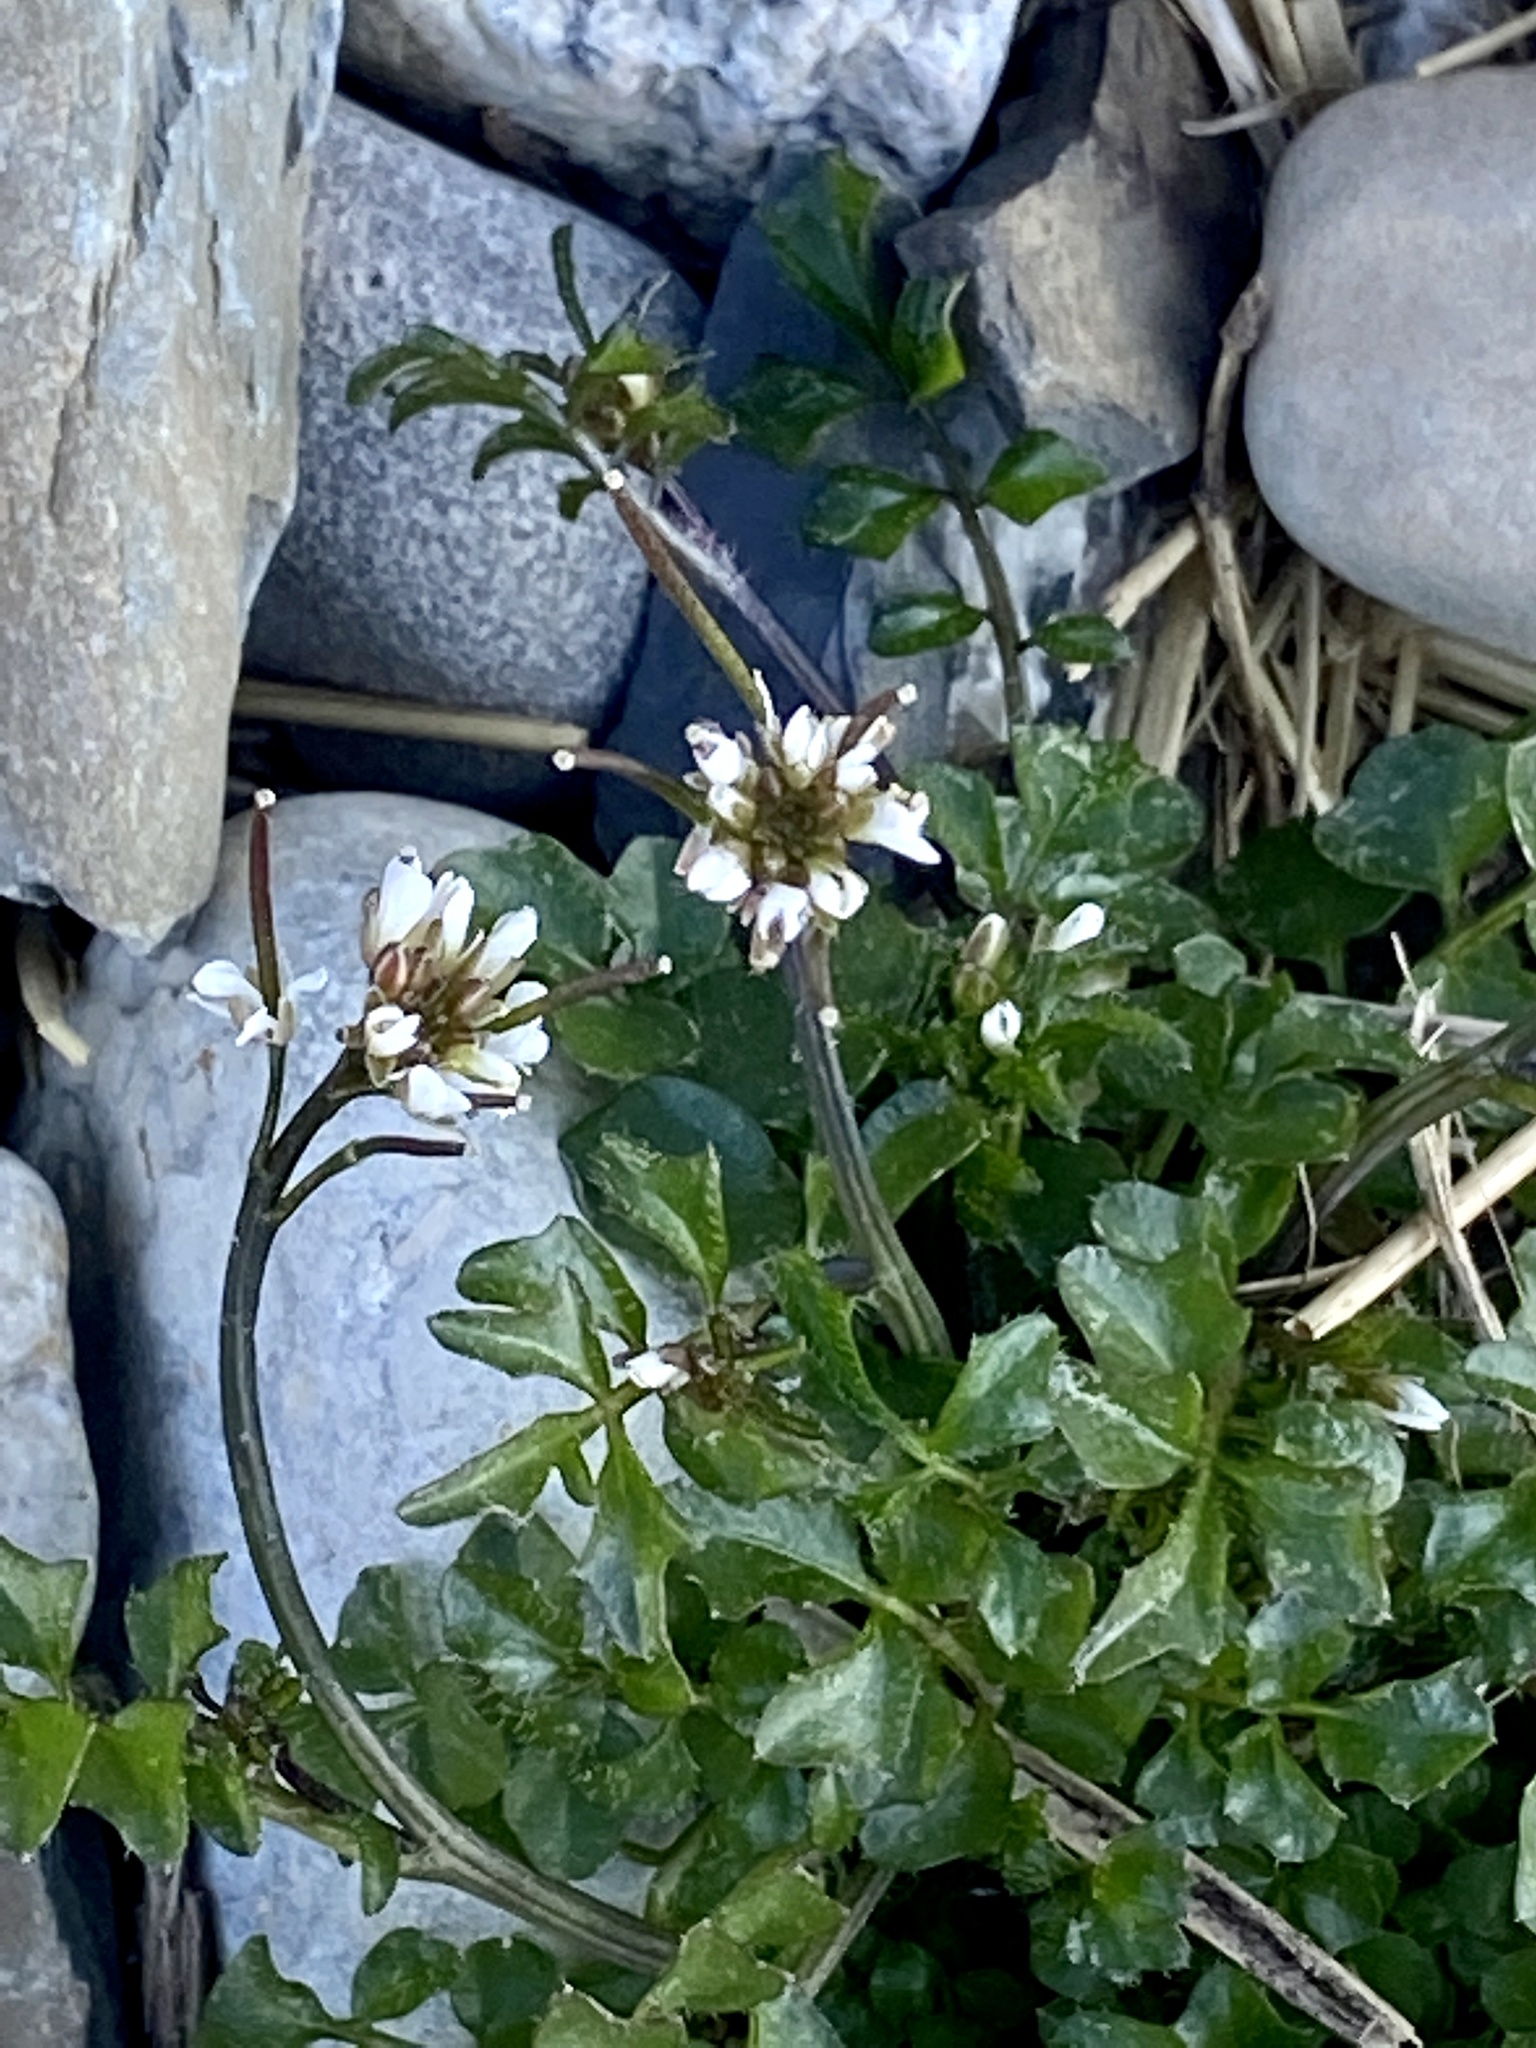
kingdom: Plantae
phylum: Tracheophyta
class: Magnoliopsida
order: Brassicales
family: Brassicaceae
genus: Cardamine
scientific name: Cardamine hirsuta
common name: Hairy bittercress
